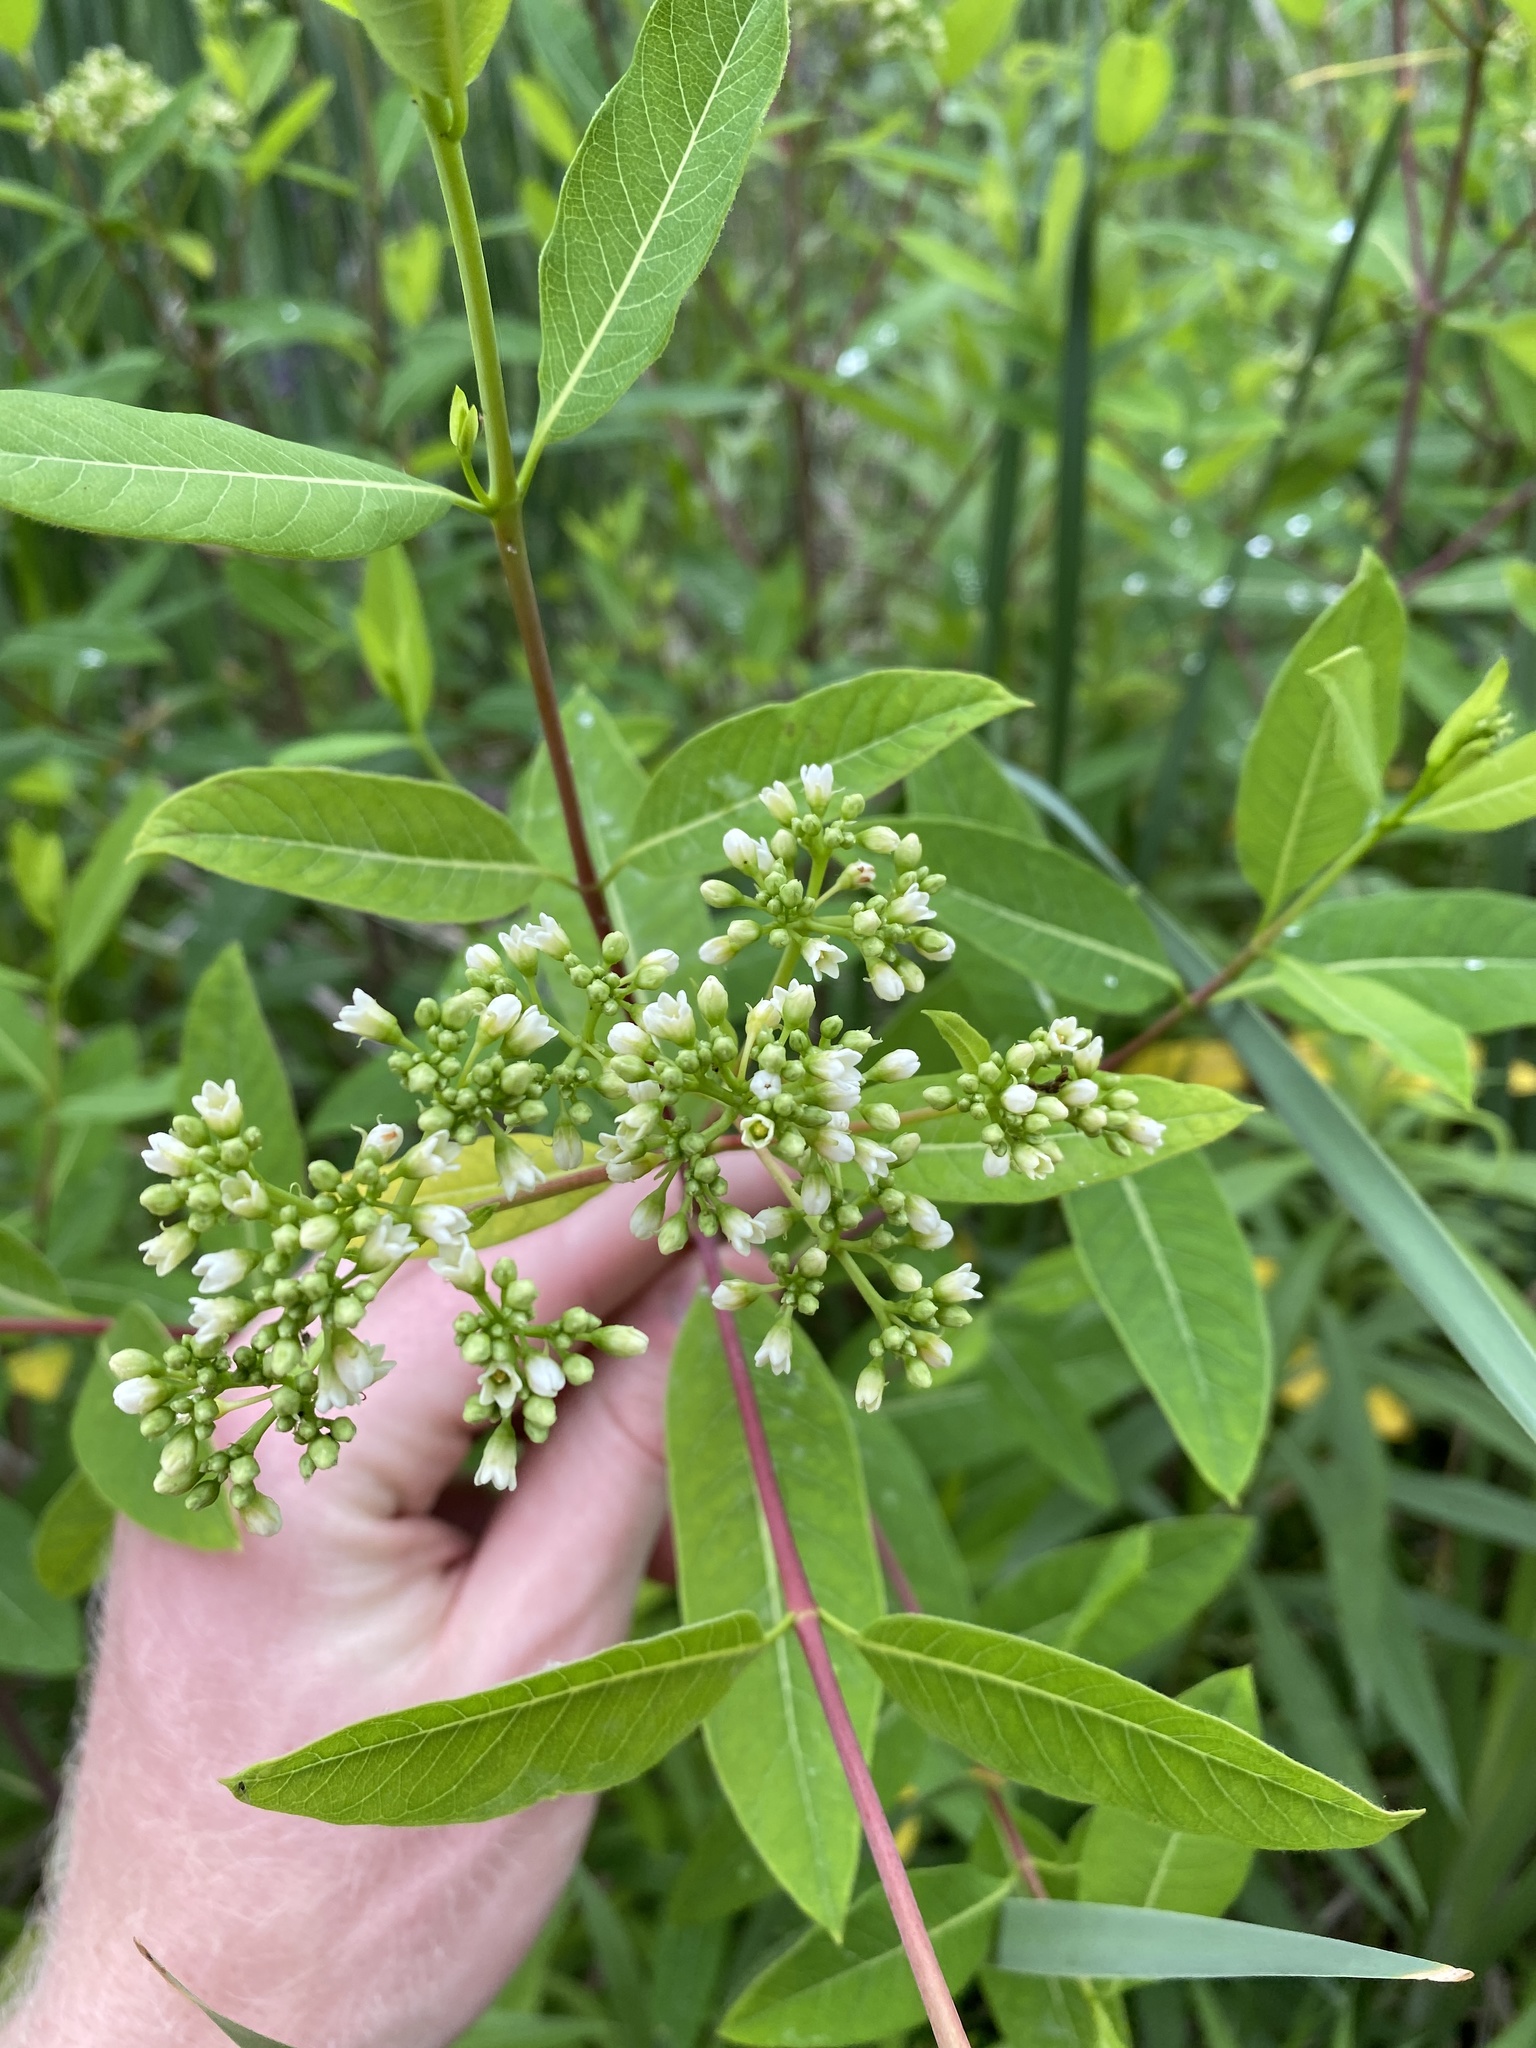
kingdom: Plantae
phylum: Tracheophyta
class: Magnoliopsida
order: Gentianales
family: Apocynaceae
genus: Apocynum
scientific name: Apocynum cannabinum
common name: Hemp dogbane
